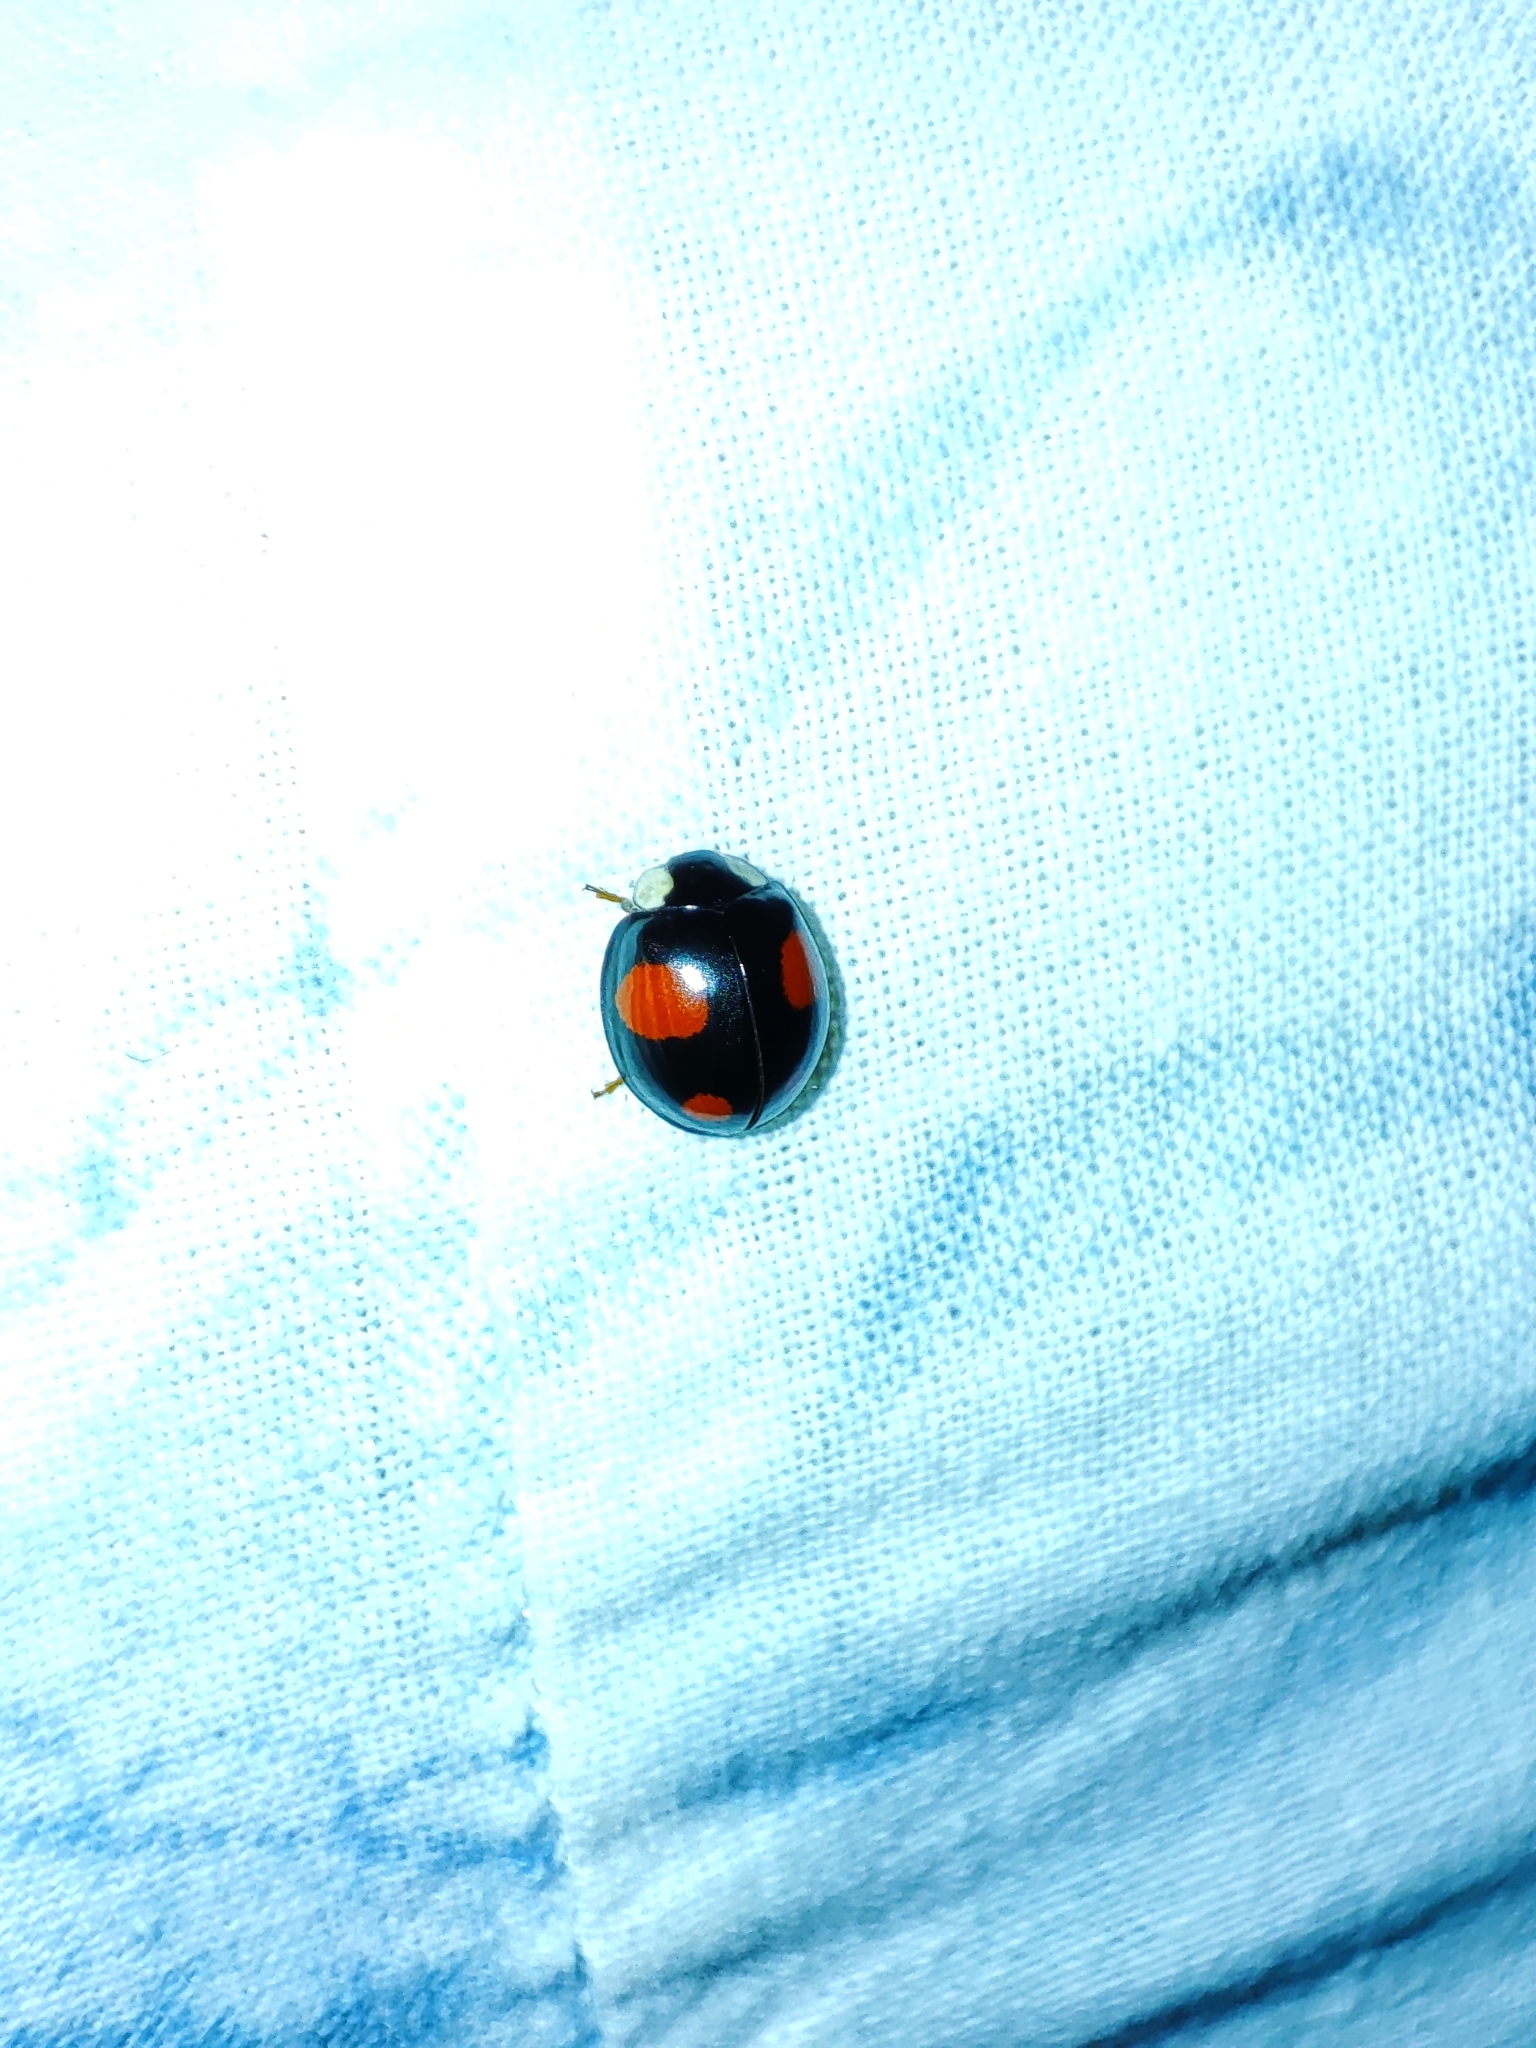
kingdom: Animalia
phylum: Arthropoda
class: Insecta
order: Coleoptera
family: Coccinellidae
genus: Harmonia
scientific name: Harmonia axyridis
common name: Harlequin ladybird
